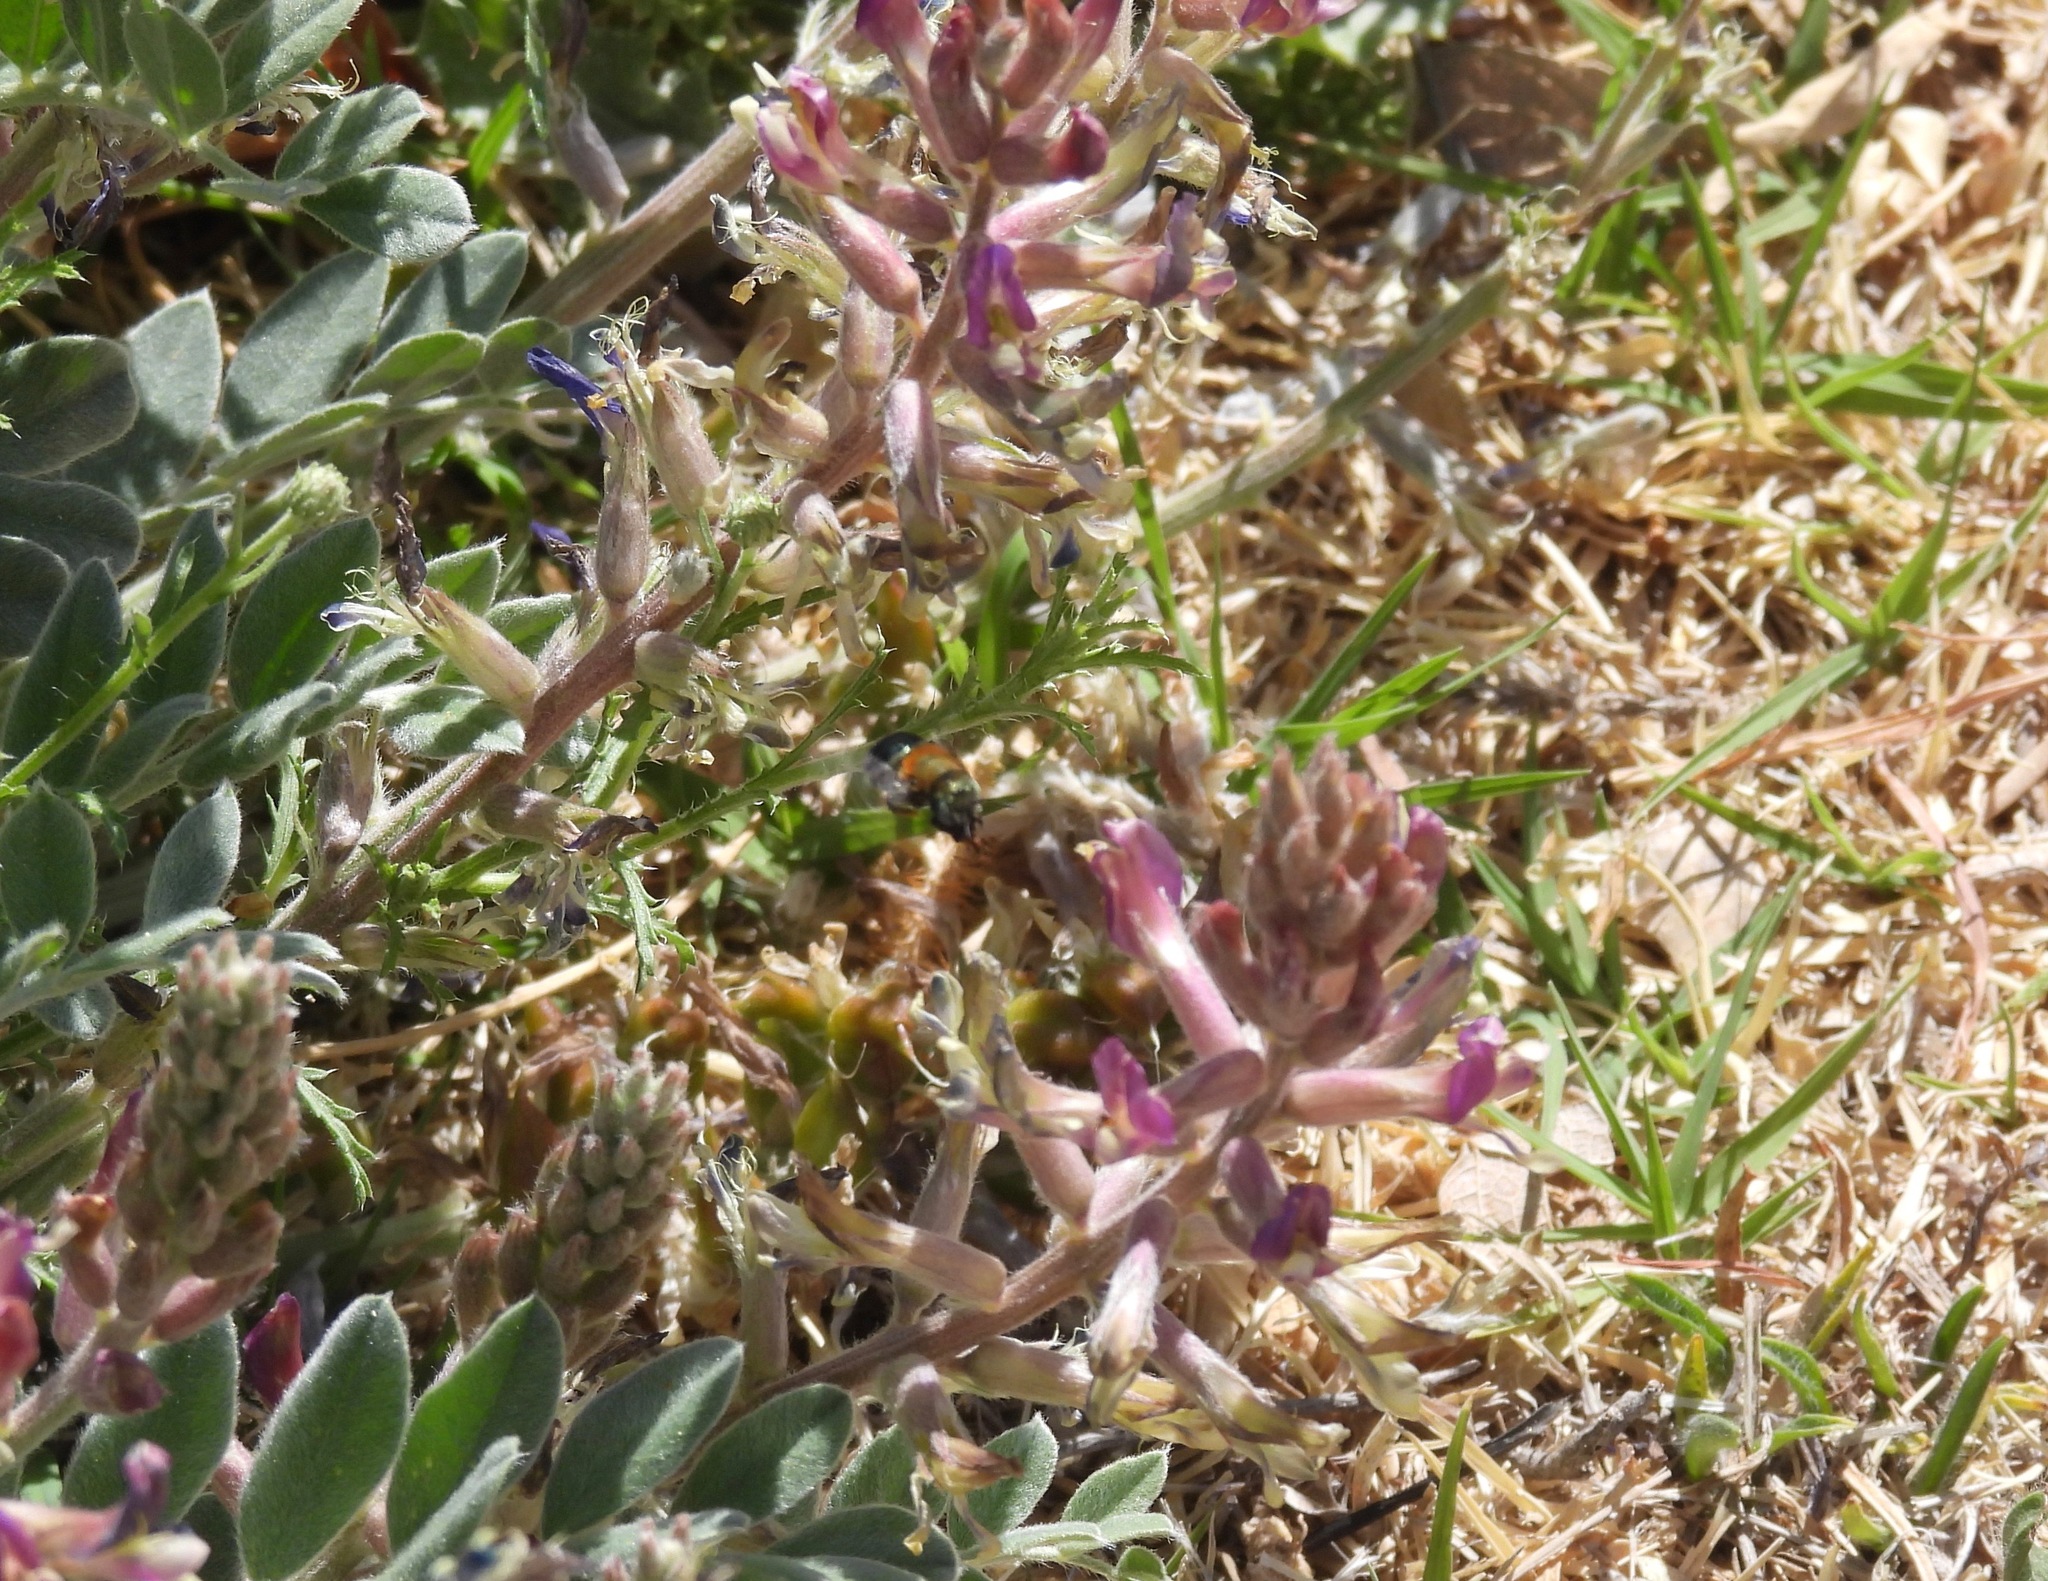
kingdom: Animalia
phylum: Arthropoda
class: Insecta
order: Hymenoptera
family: Megachilidae
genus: Osmia
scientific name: Osmia
